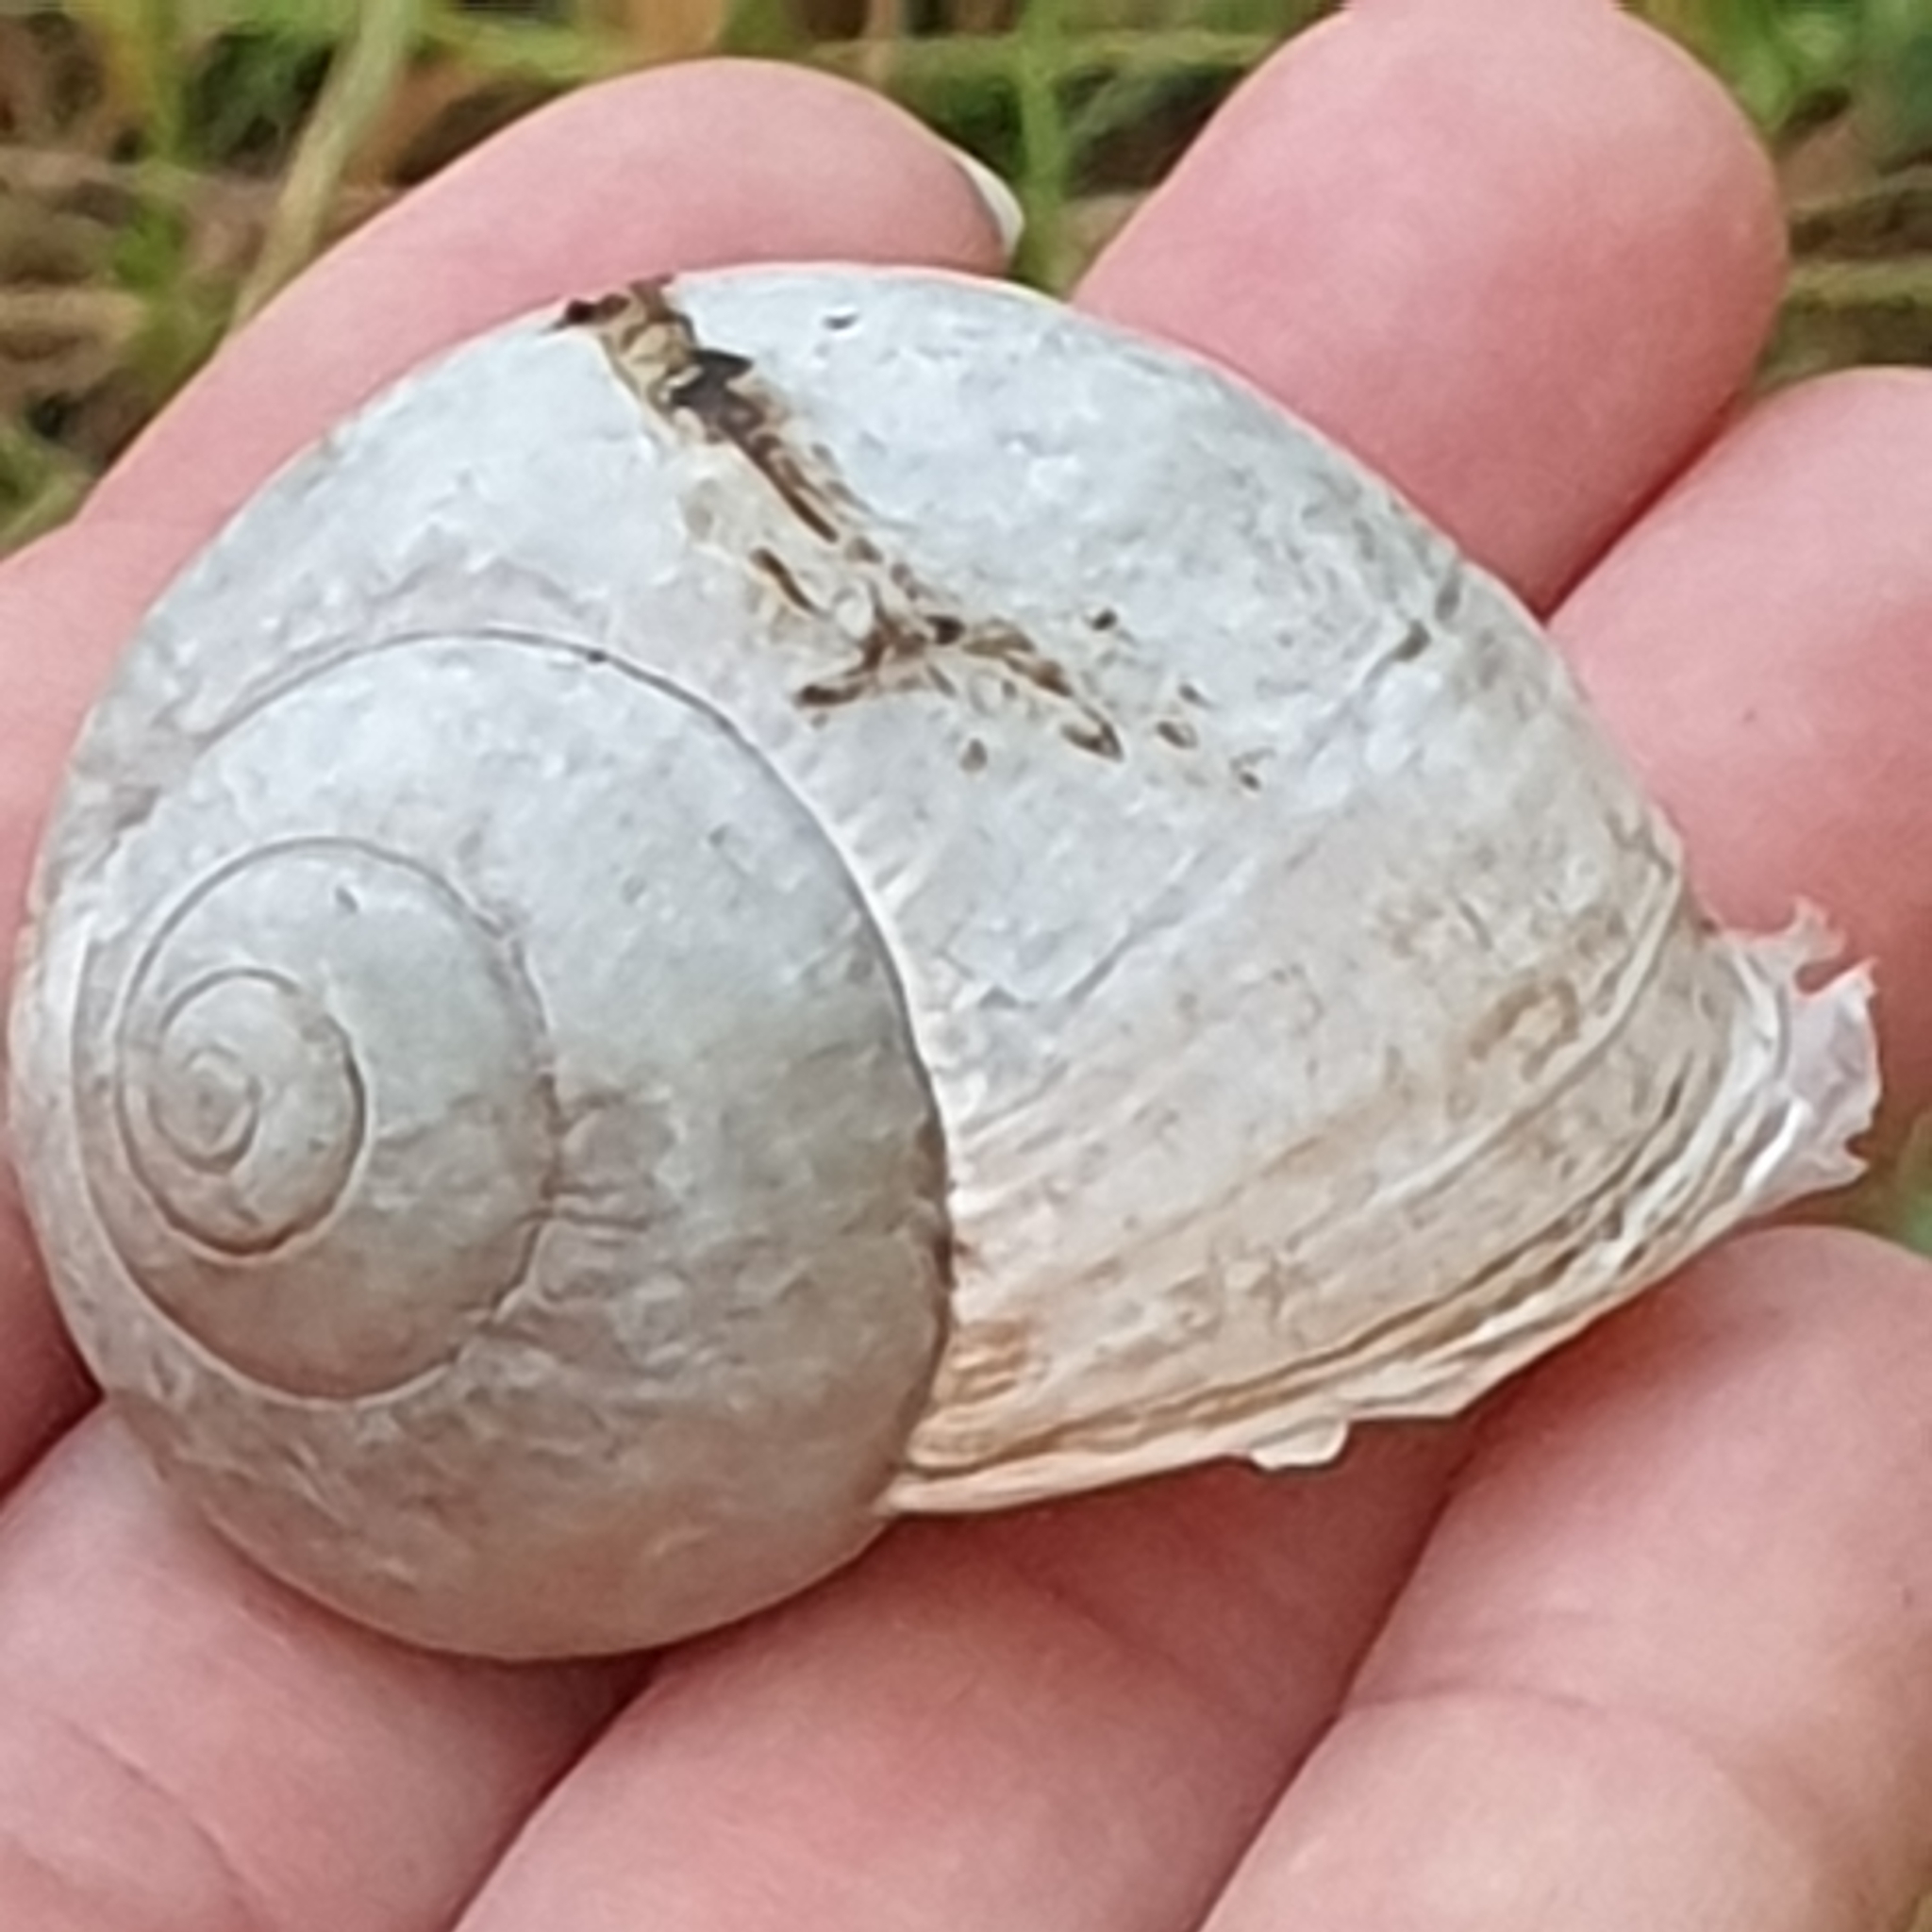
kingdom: Animalia
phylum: Mollusca
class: Gastropoda
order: Stylommatophora
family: Helicidae
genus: Helix
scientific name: Helix pomatia
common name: Roman snail
